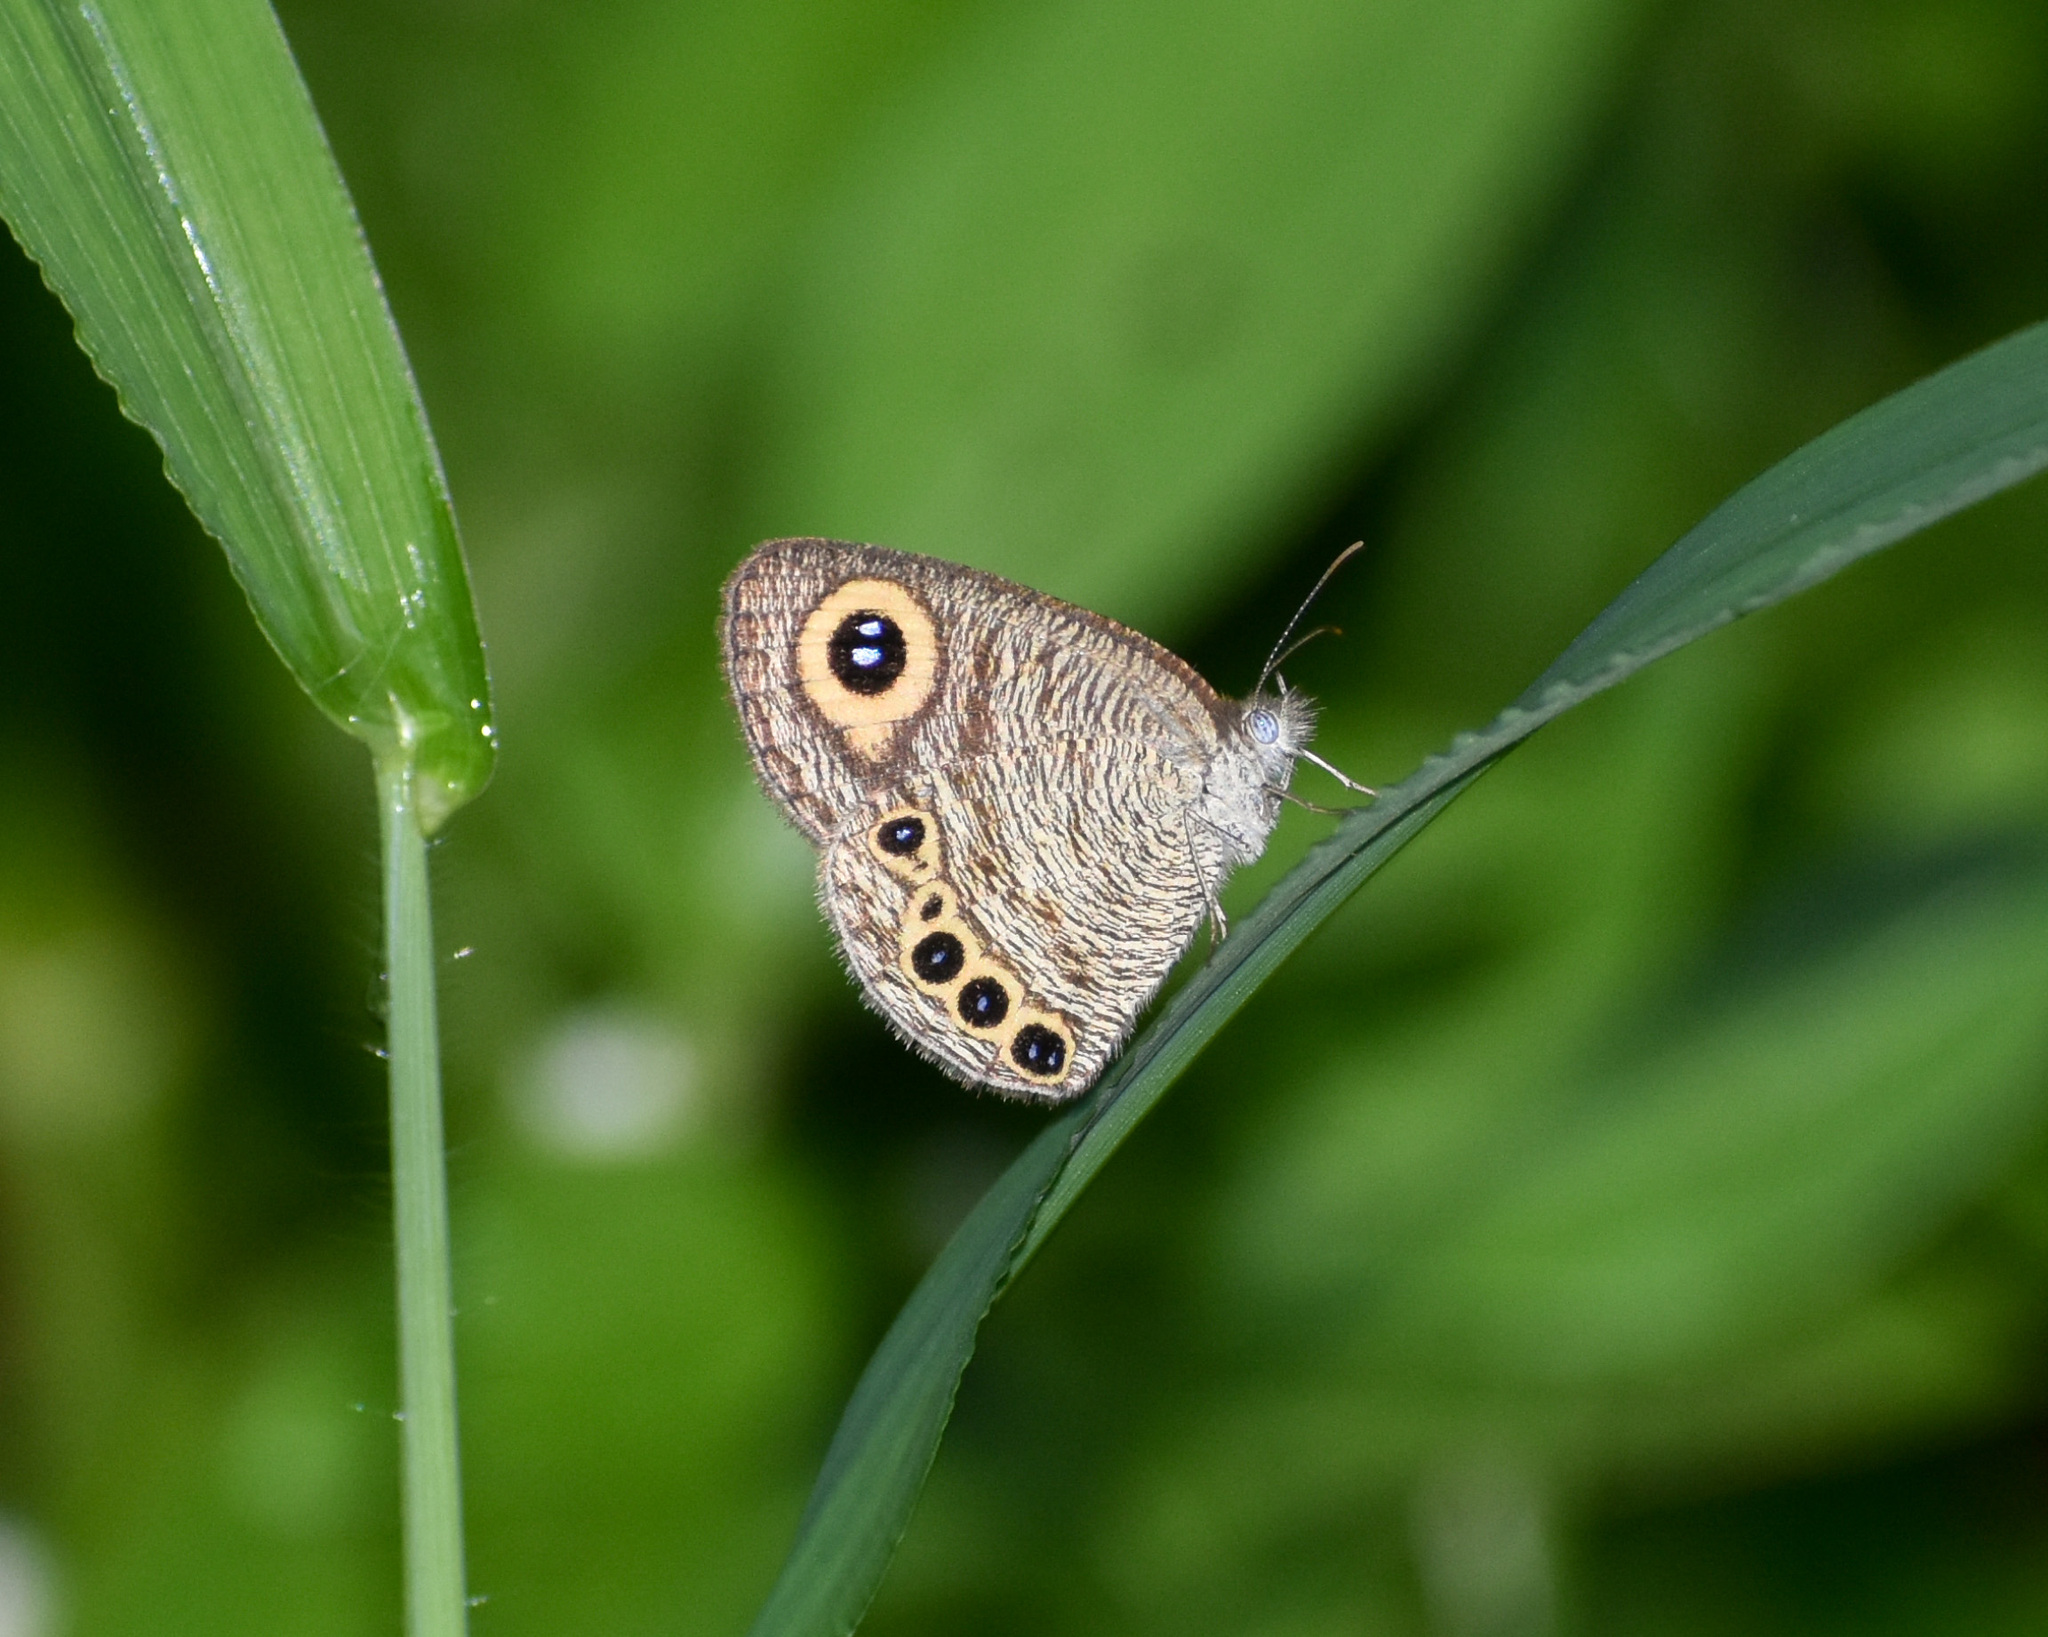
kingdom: Animalia
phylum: Arthropoda
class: Insecta
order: Lepidoptera
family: Nymphalidae
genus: Ypthima
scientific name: Ypthima huebneri
